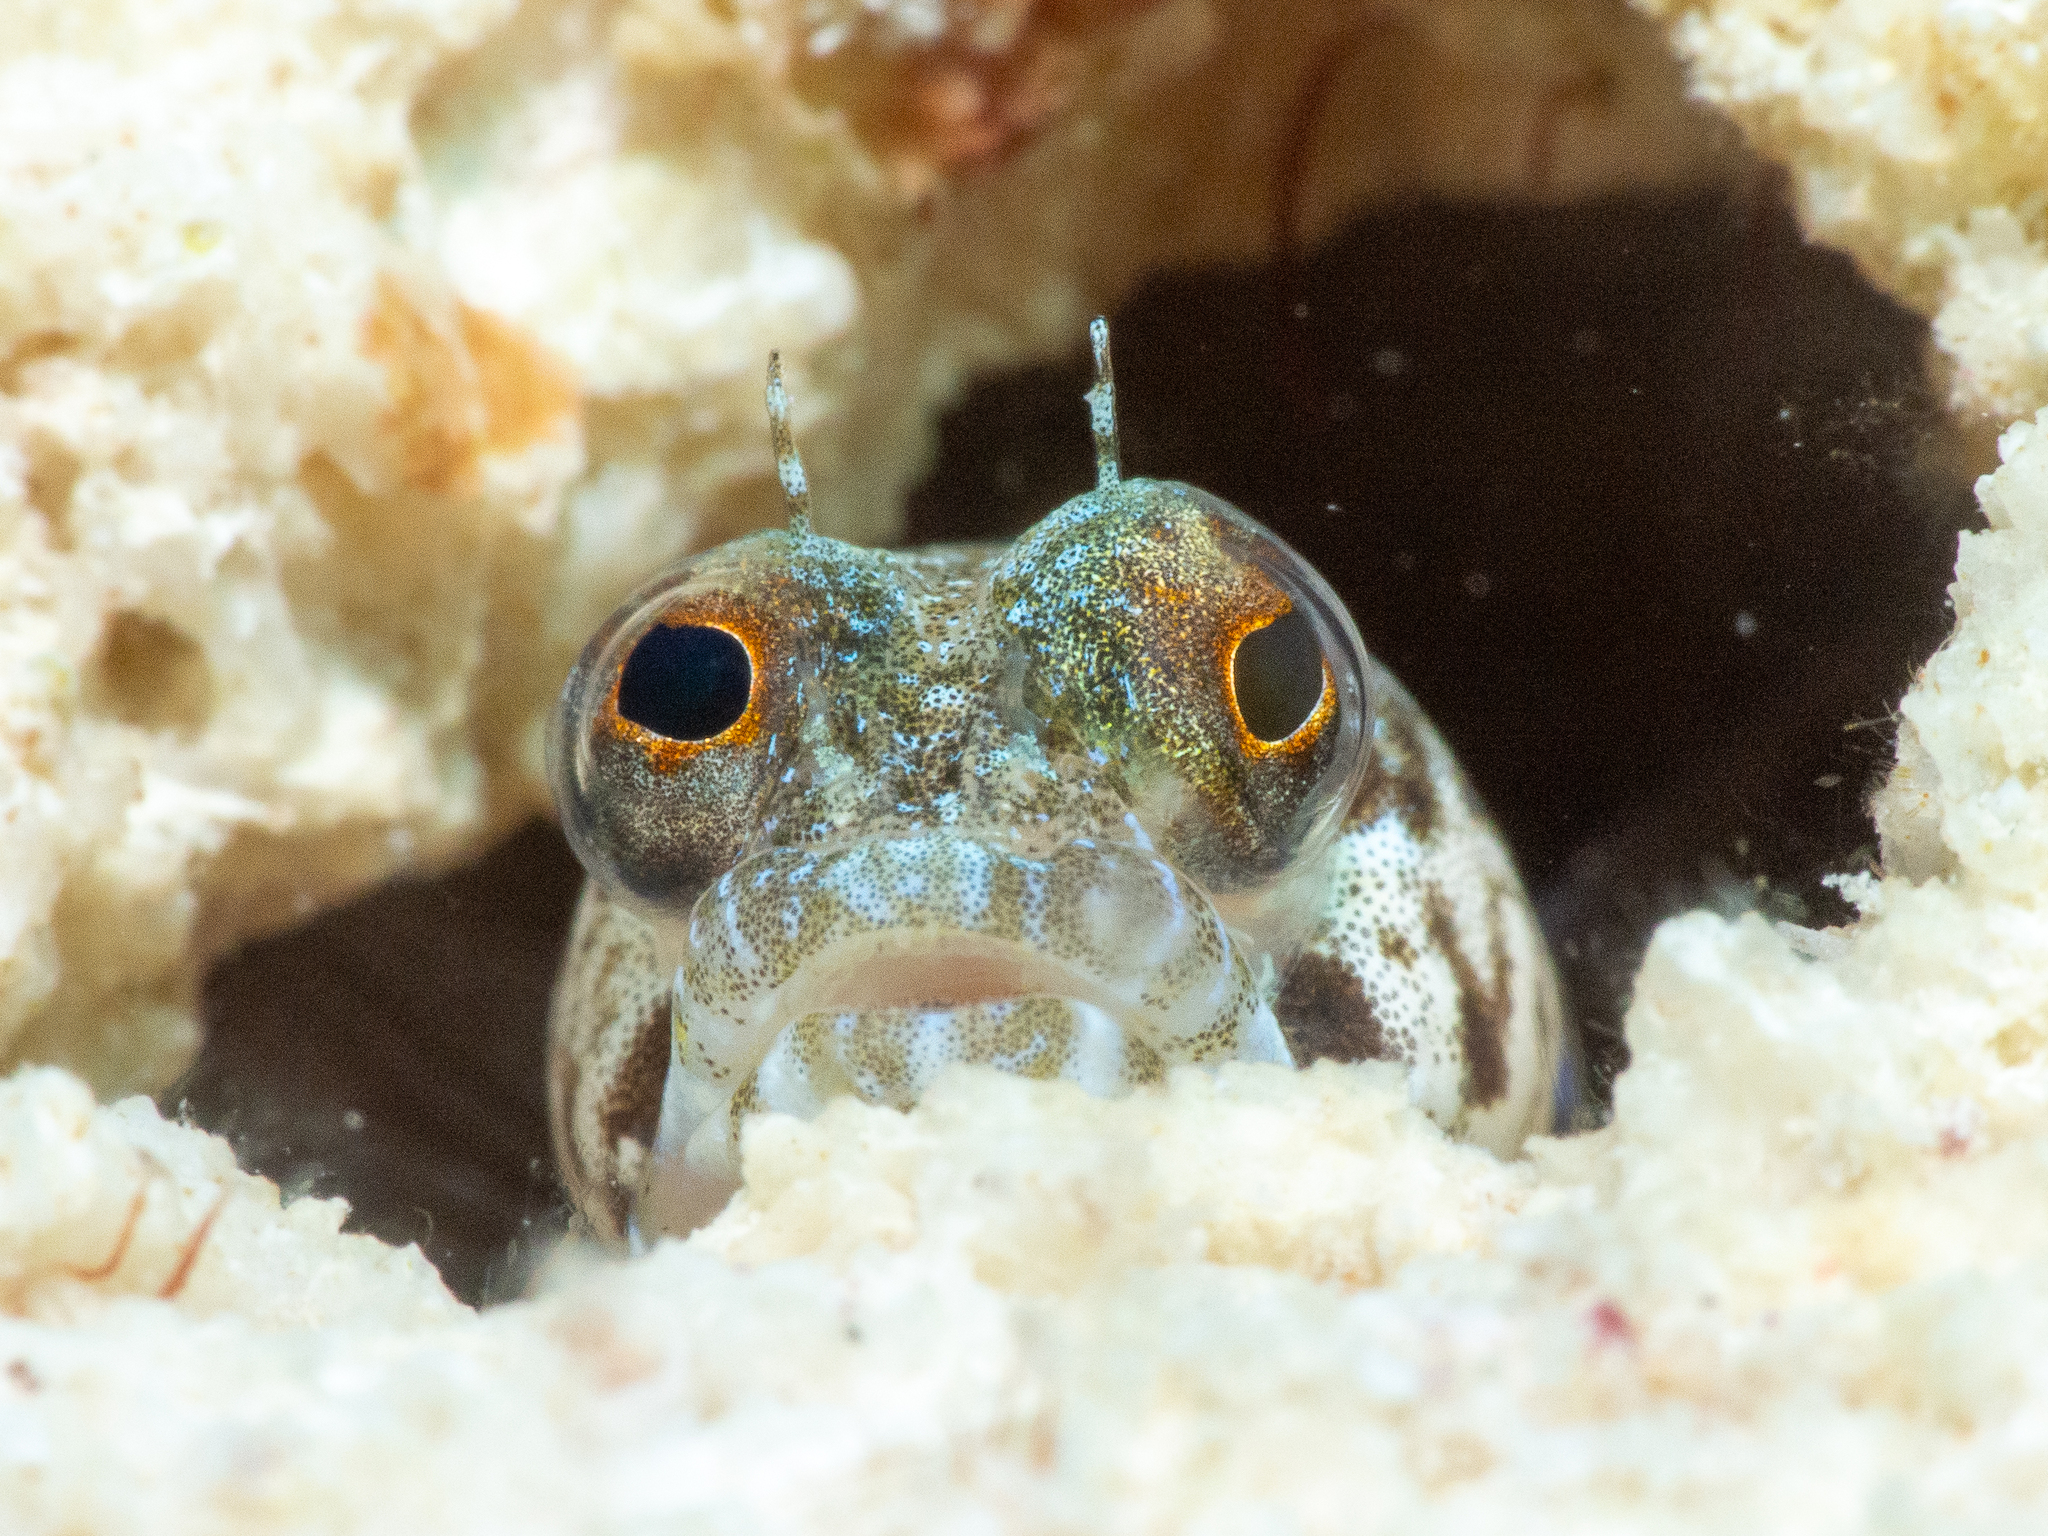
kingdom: Animalia
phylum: Chordata
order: Perciformes
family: Chaenopsidae
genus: Emblemaria
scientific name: Emblemaria pandionis
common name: Sailfin blenny
